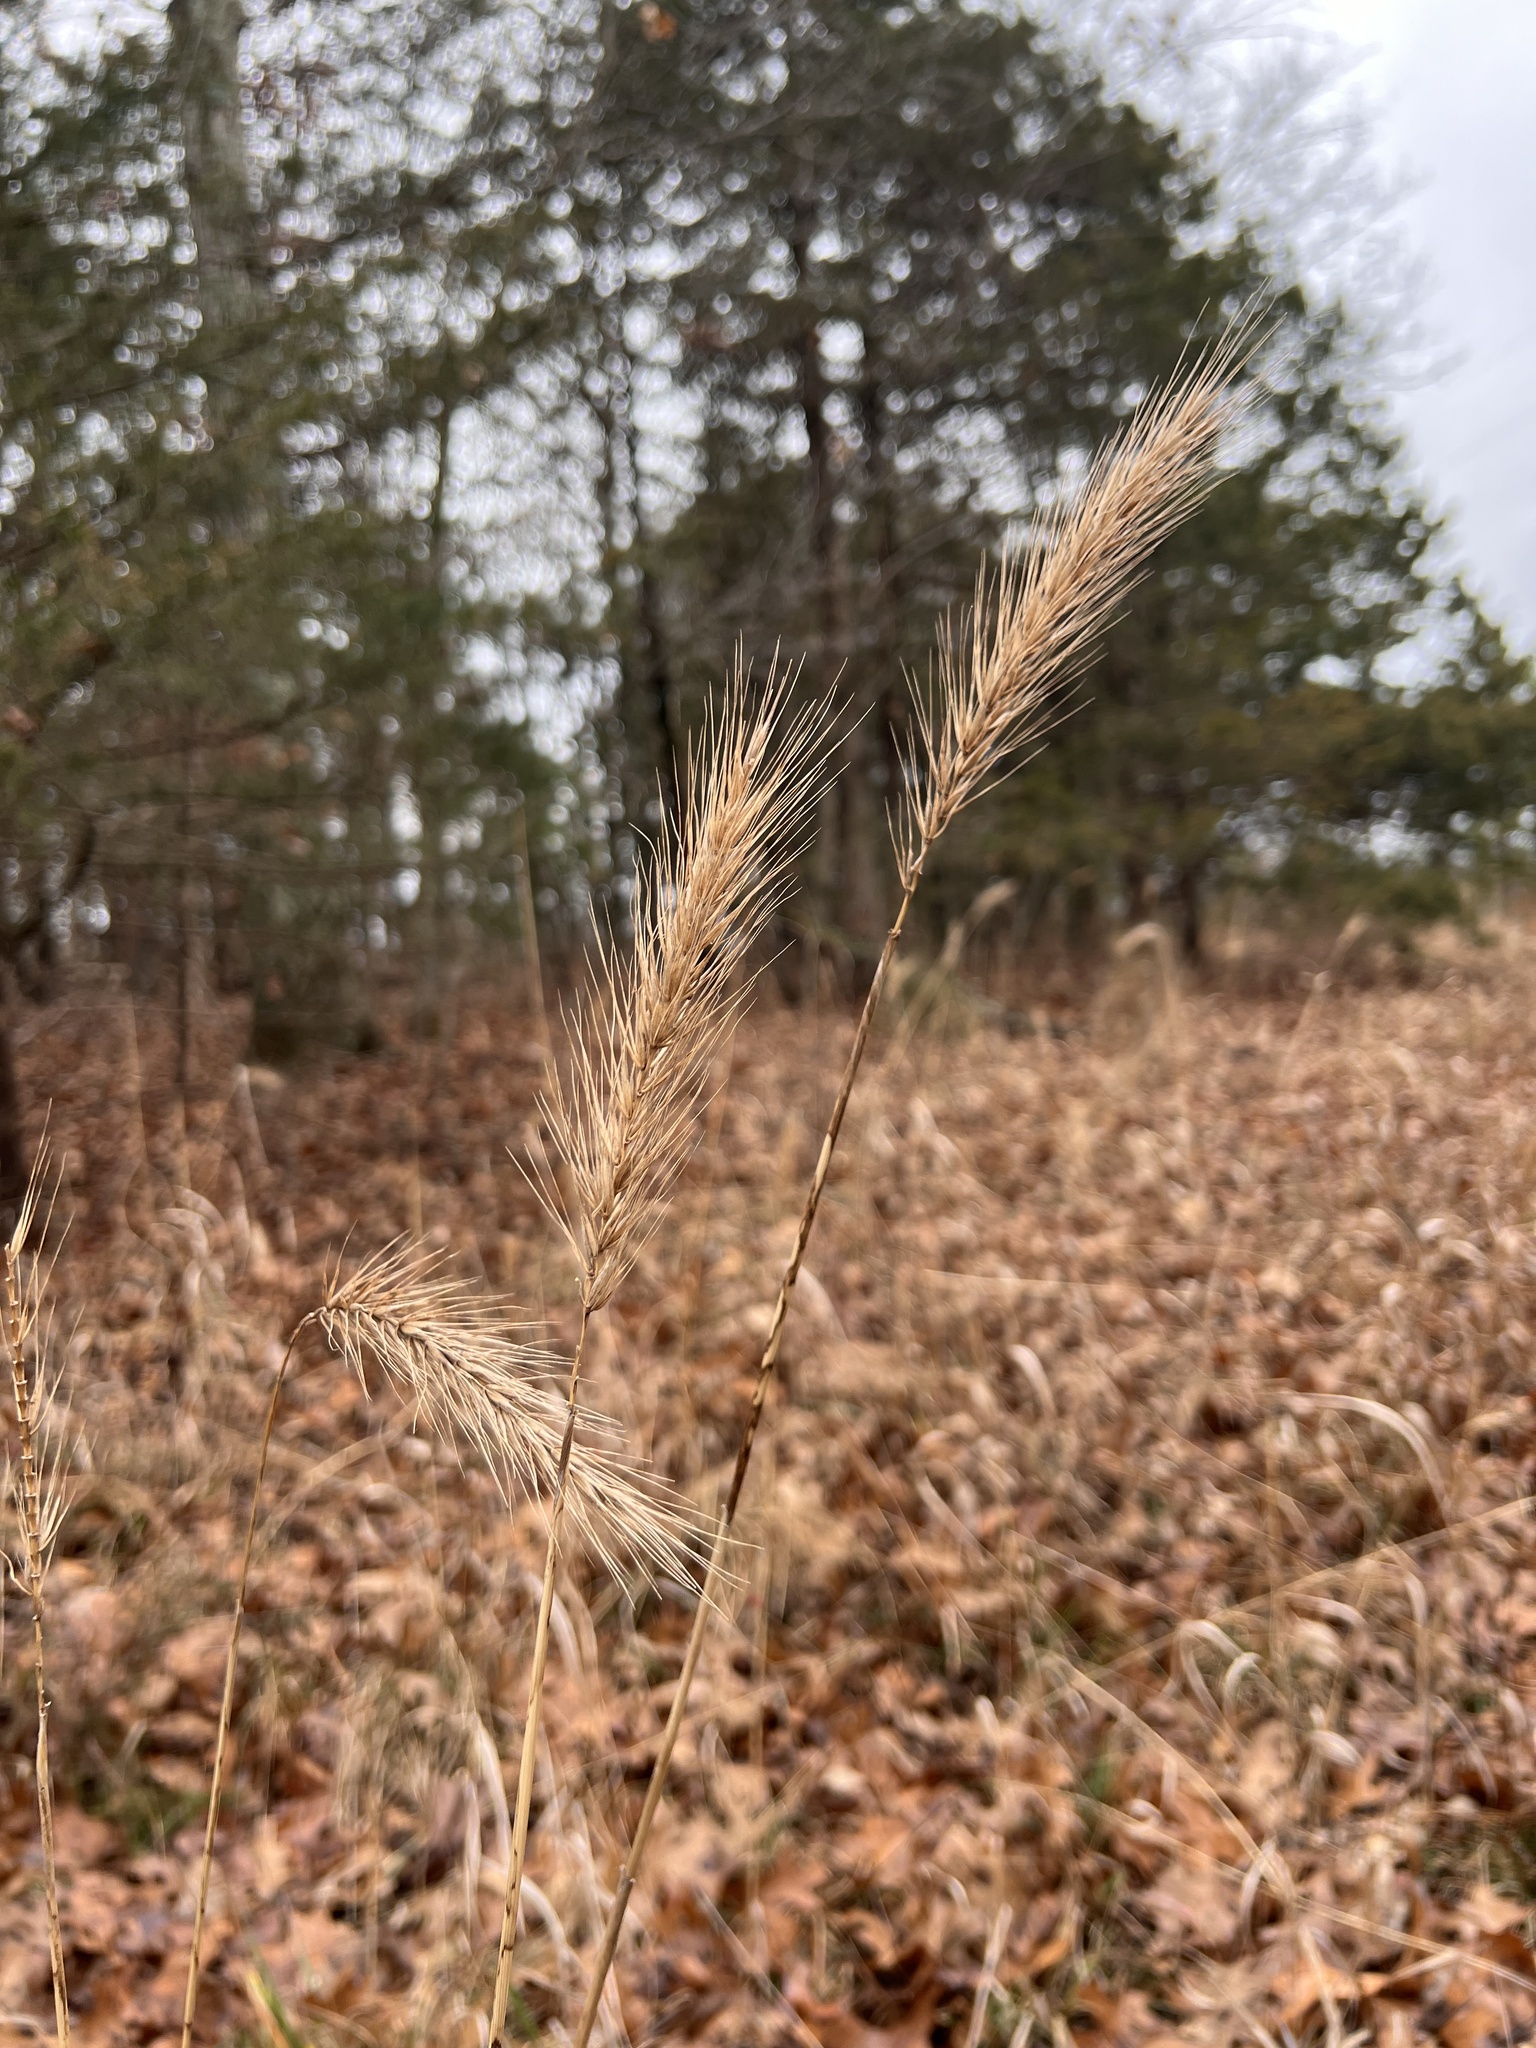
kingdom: Plantae
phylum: Tracheophyta
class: Liliopsida
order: Poales
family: Poaceae
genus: Elymus
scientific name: Elymus virginicus
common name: Common eastern wildrye
